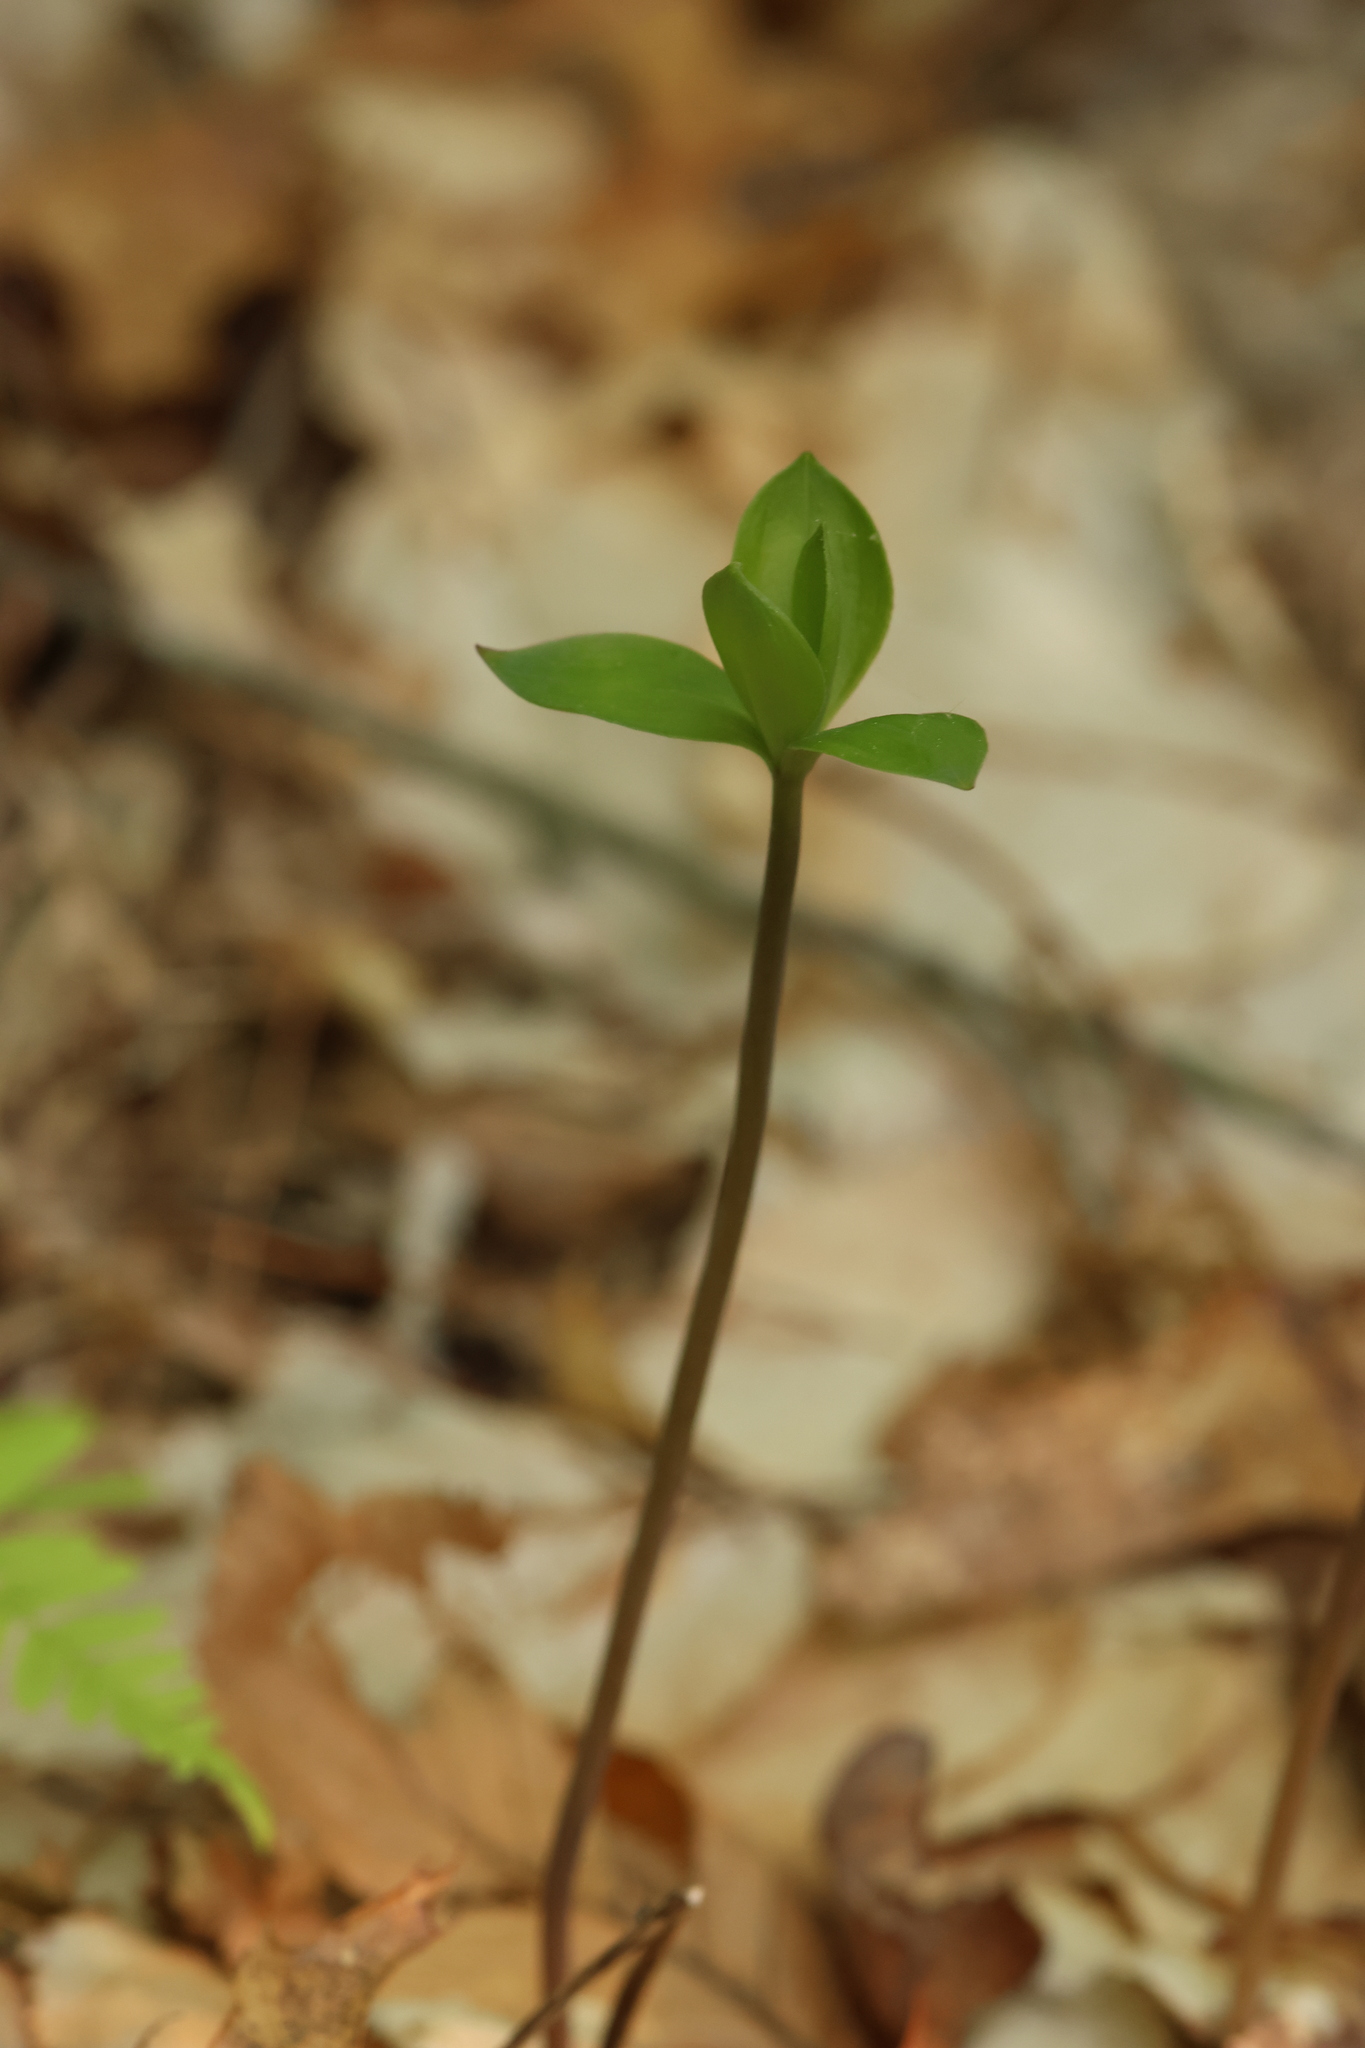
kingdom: Plantae
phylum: Tracheophyta
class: Liliopsida
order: Asparagales
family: Orchidaceae
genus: Isotria
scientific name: Isotria verticillata
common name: Large whorled pogonia
